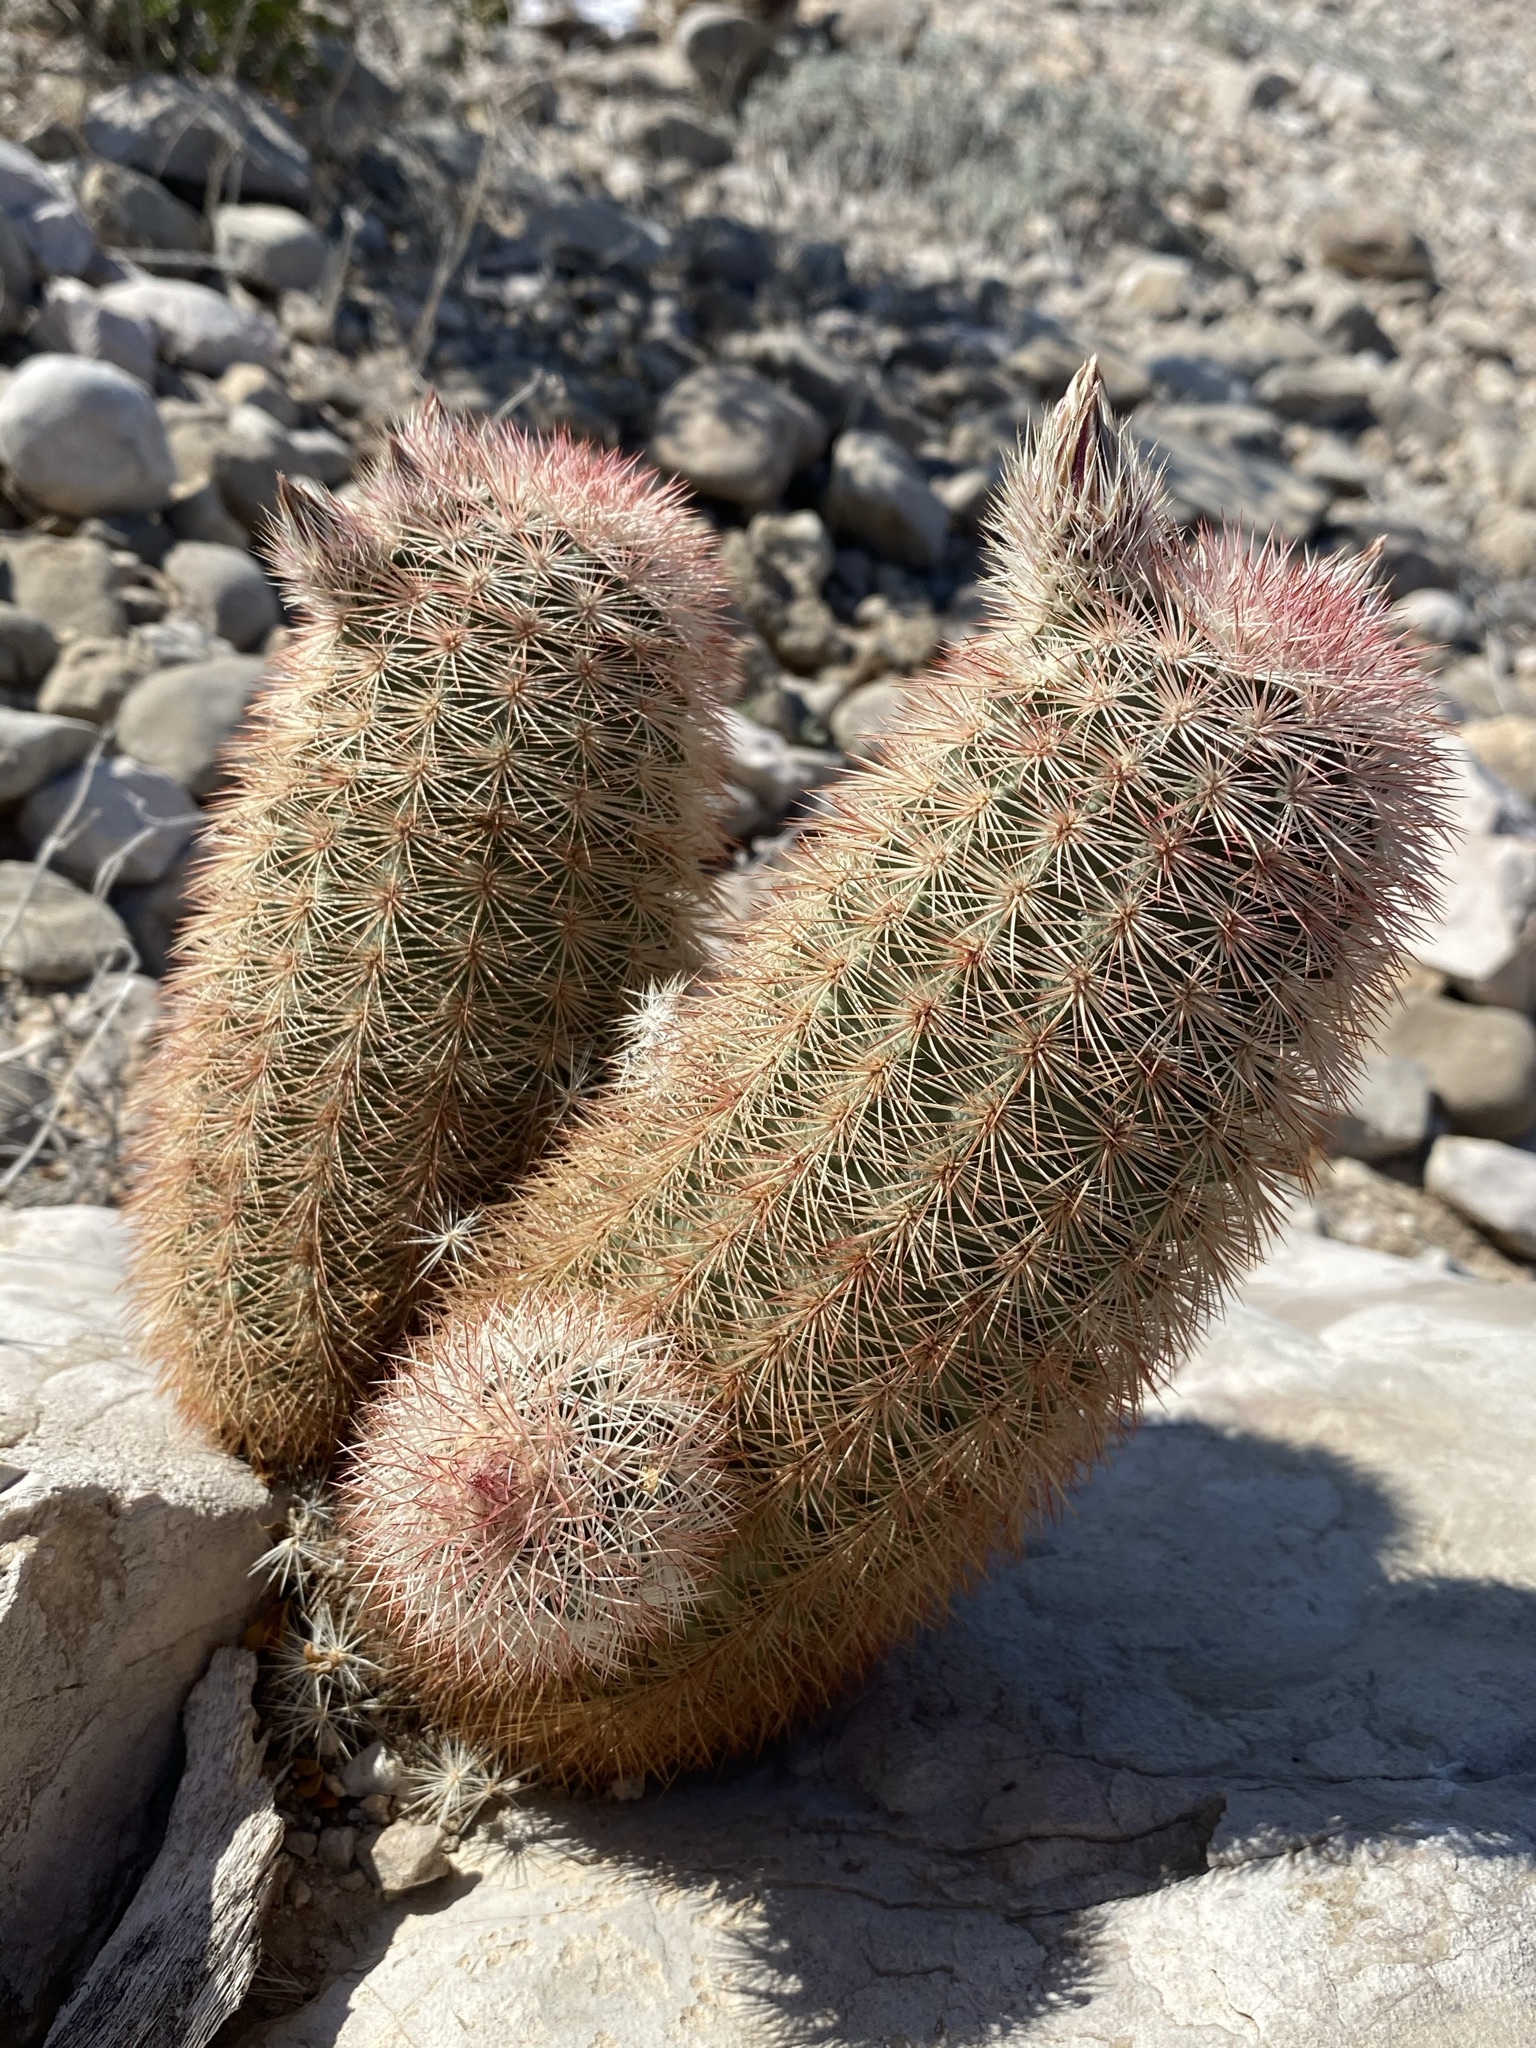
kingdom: Plantae
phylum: Tracheophyta
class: Magnoliopsida
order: Caryophyllales
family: Cactaceae
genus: Echinocereus
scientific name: Echinocereus dasyacanthus
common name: Spiny hedgehog cactus
